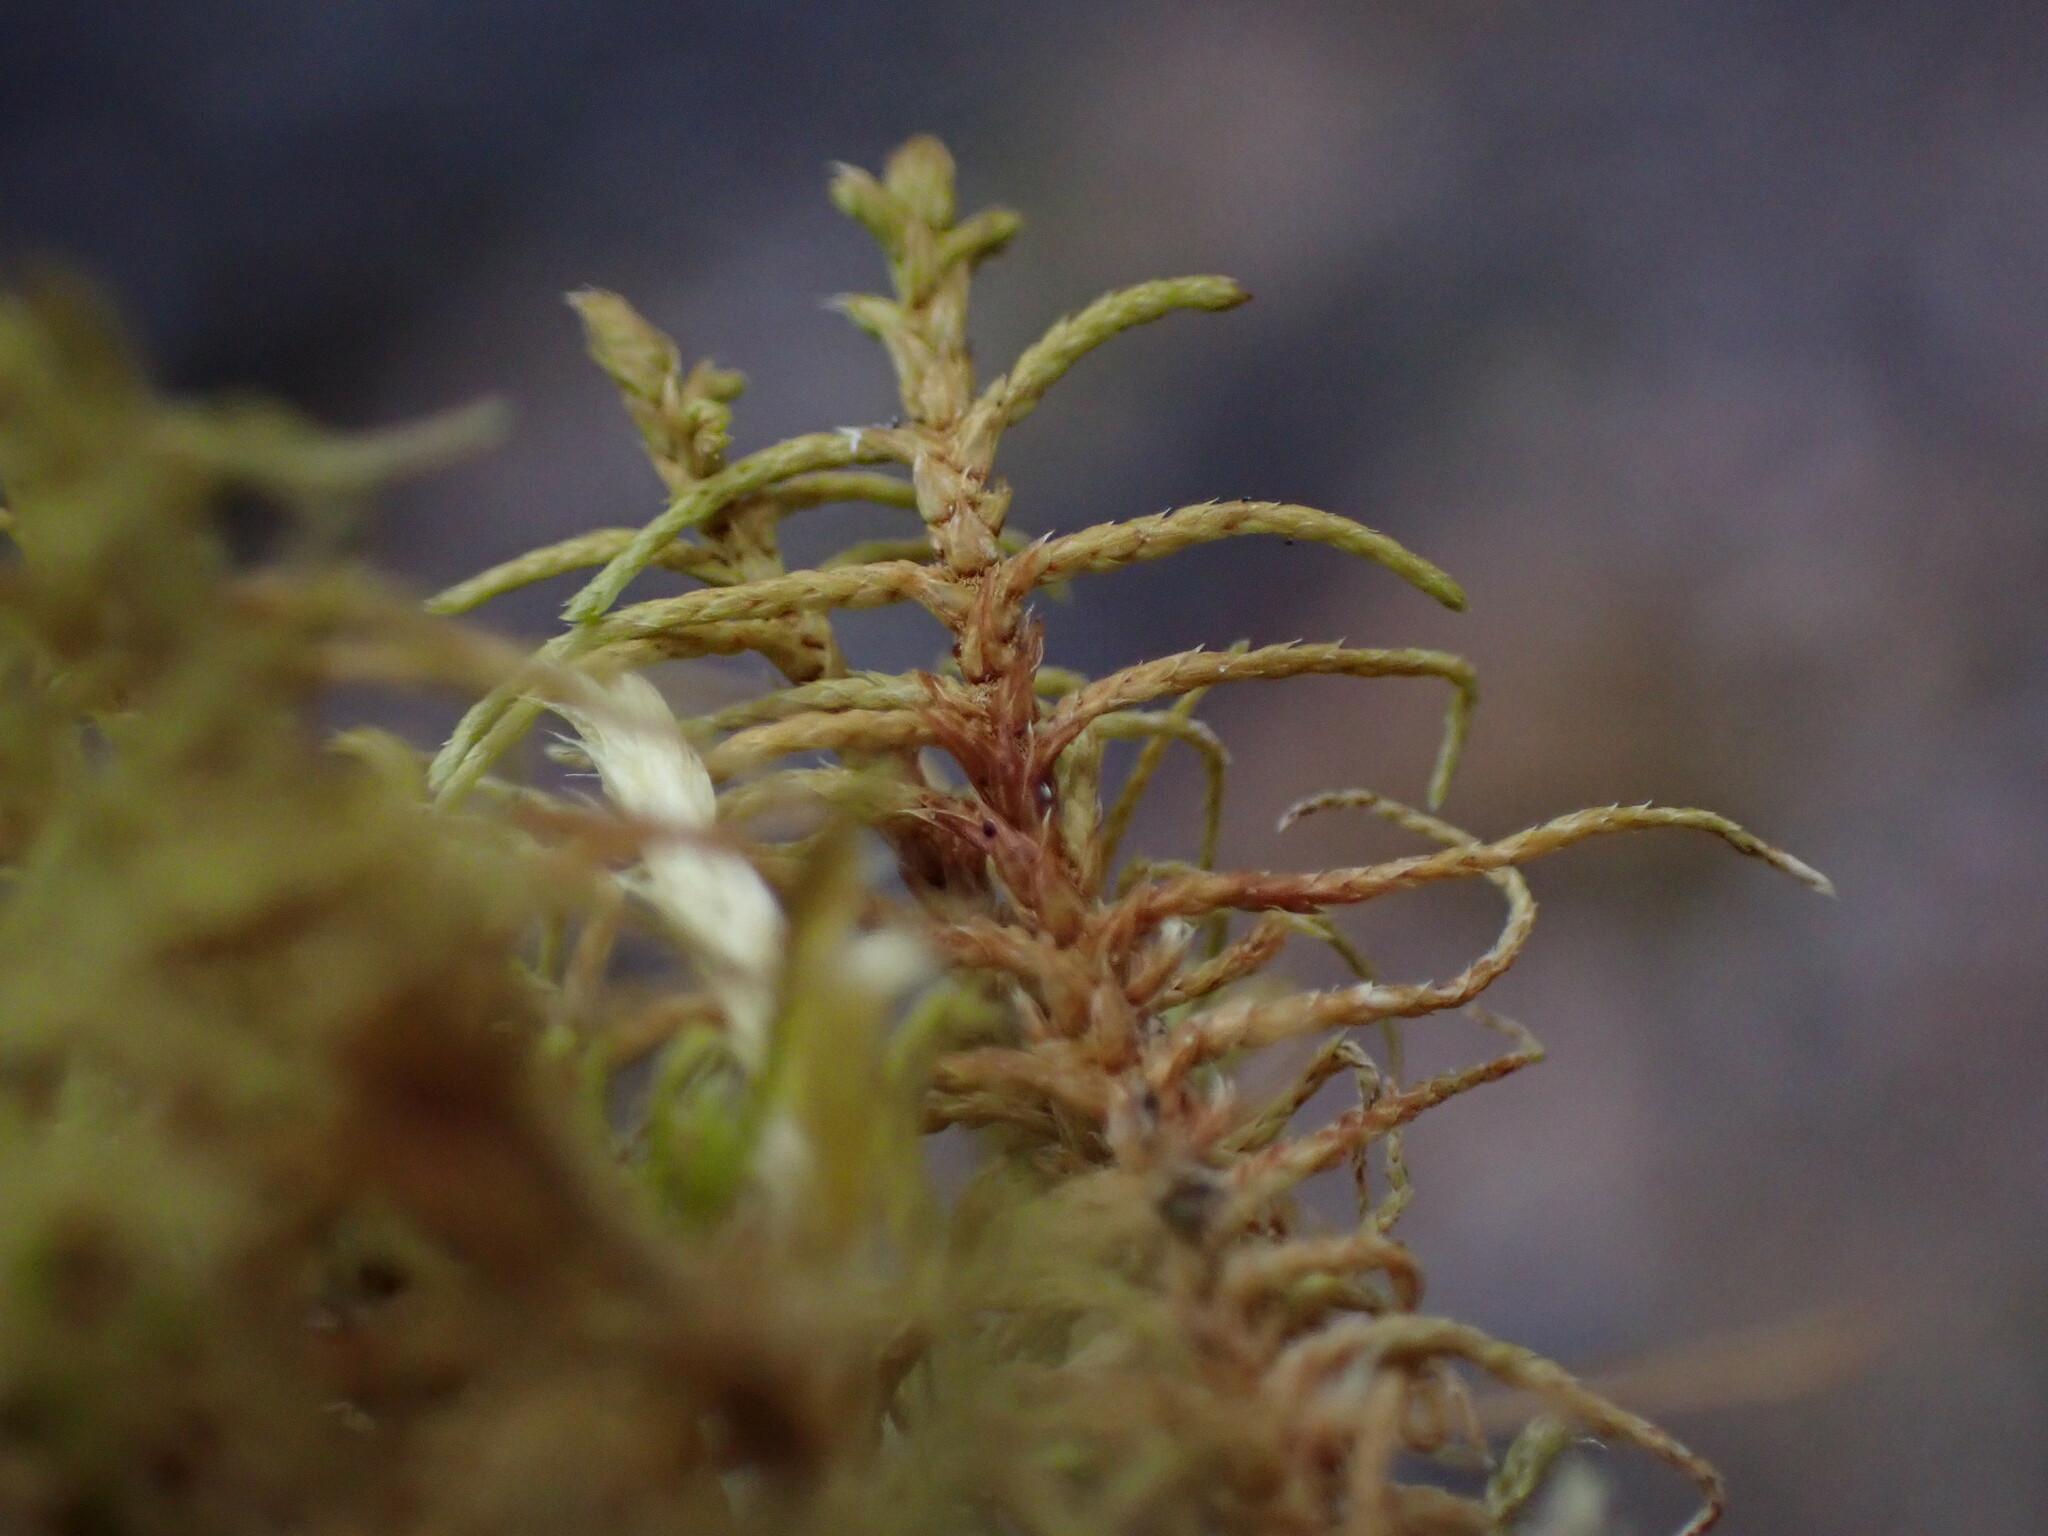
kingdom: Plantae
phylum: Bryophyta
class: Bryopsida
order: Hypnales
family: Thuidiaceae
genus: Abietinella
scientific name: Abietinella abietina
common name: Wiry fern moss
